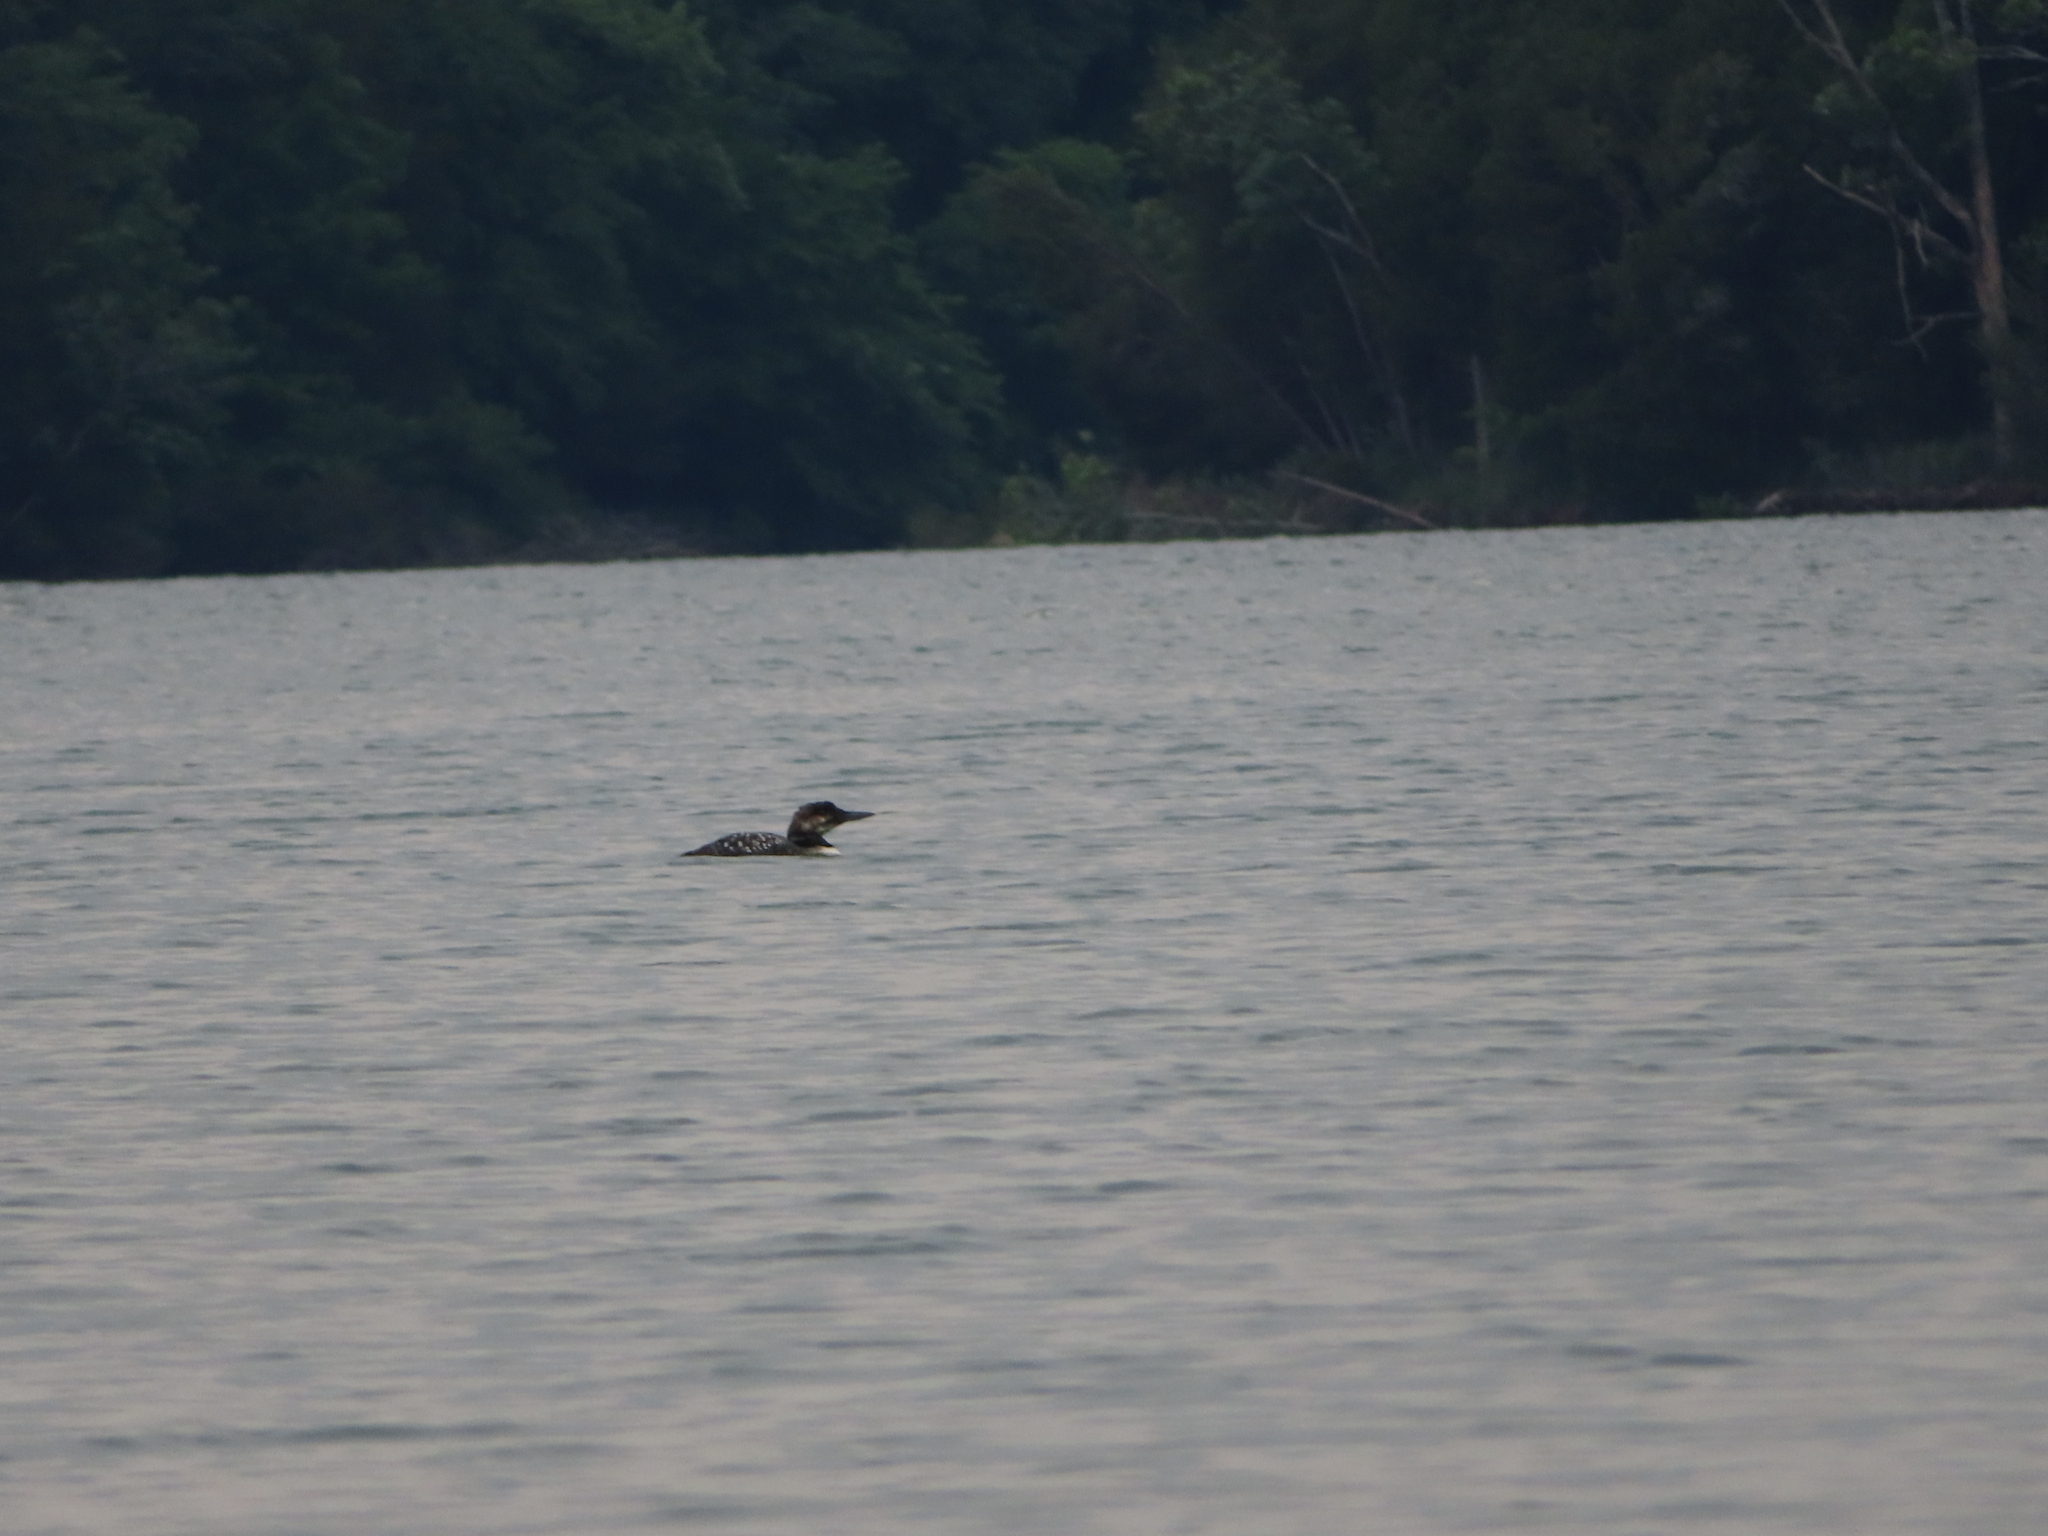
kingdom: Animalia
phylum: Chordata
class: Aves
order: Gaviiformes
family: Gaviidae
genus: Gavia
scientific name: Gavia immer
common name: Common loon
